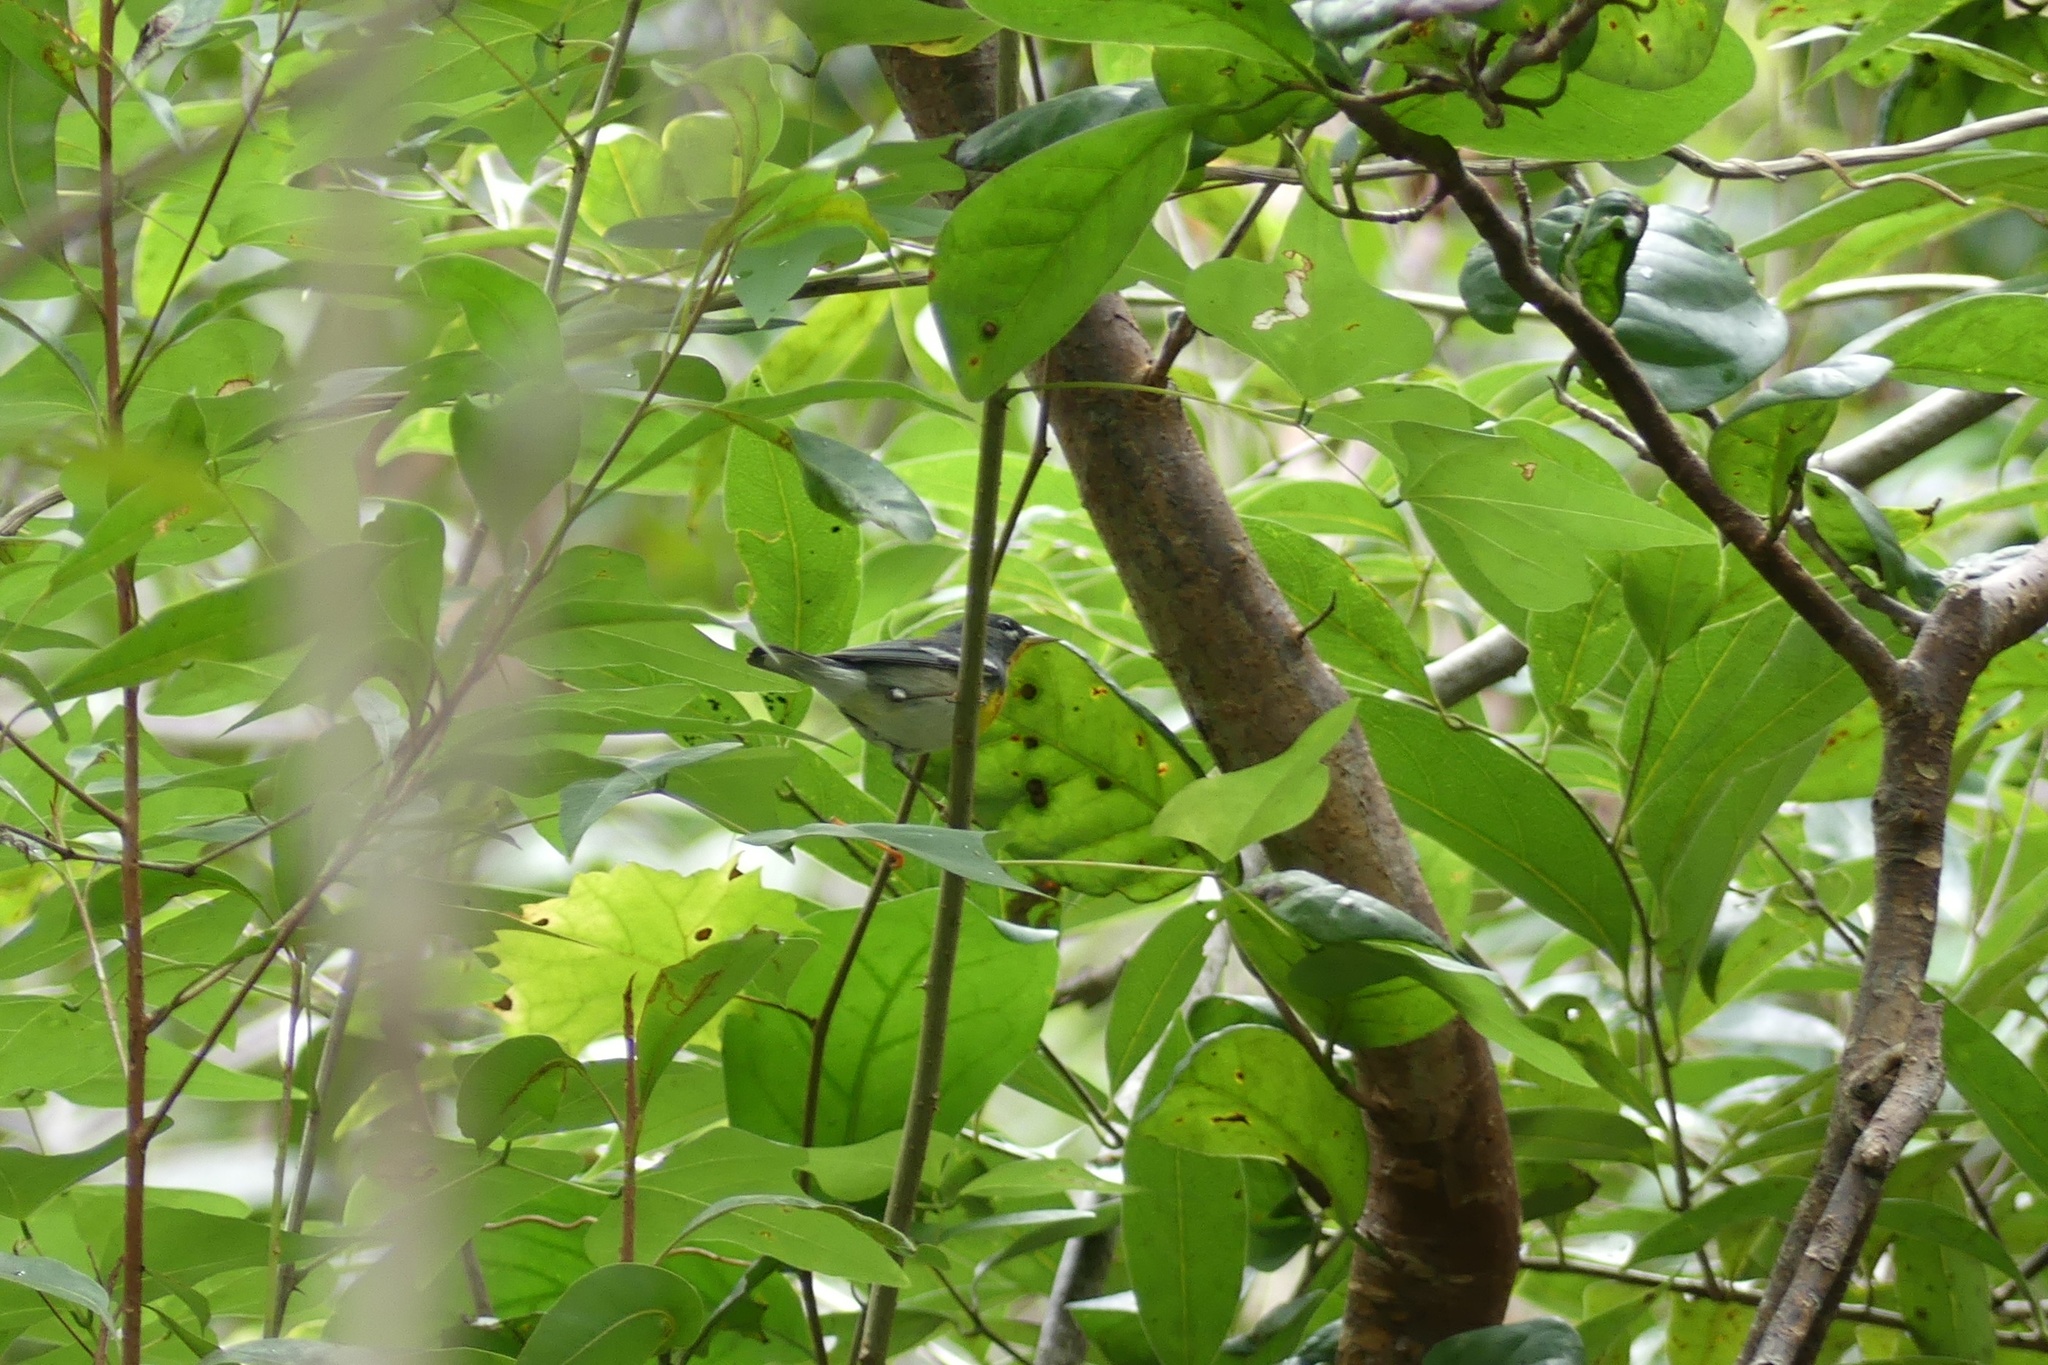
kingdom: Animalia
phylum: Chordata
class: Aves
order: Passeriformes
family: Parulidae
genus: Setophaga
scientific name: Setophaga americana
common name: Northern parula
